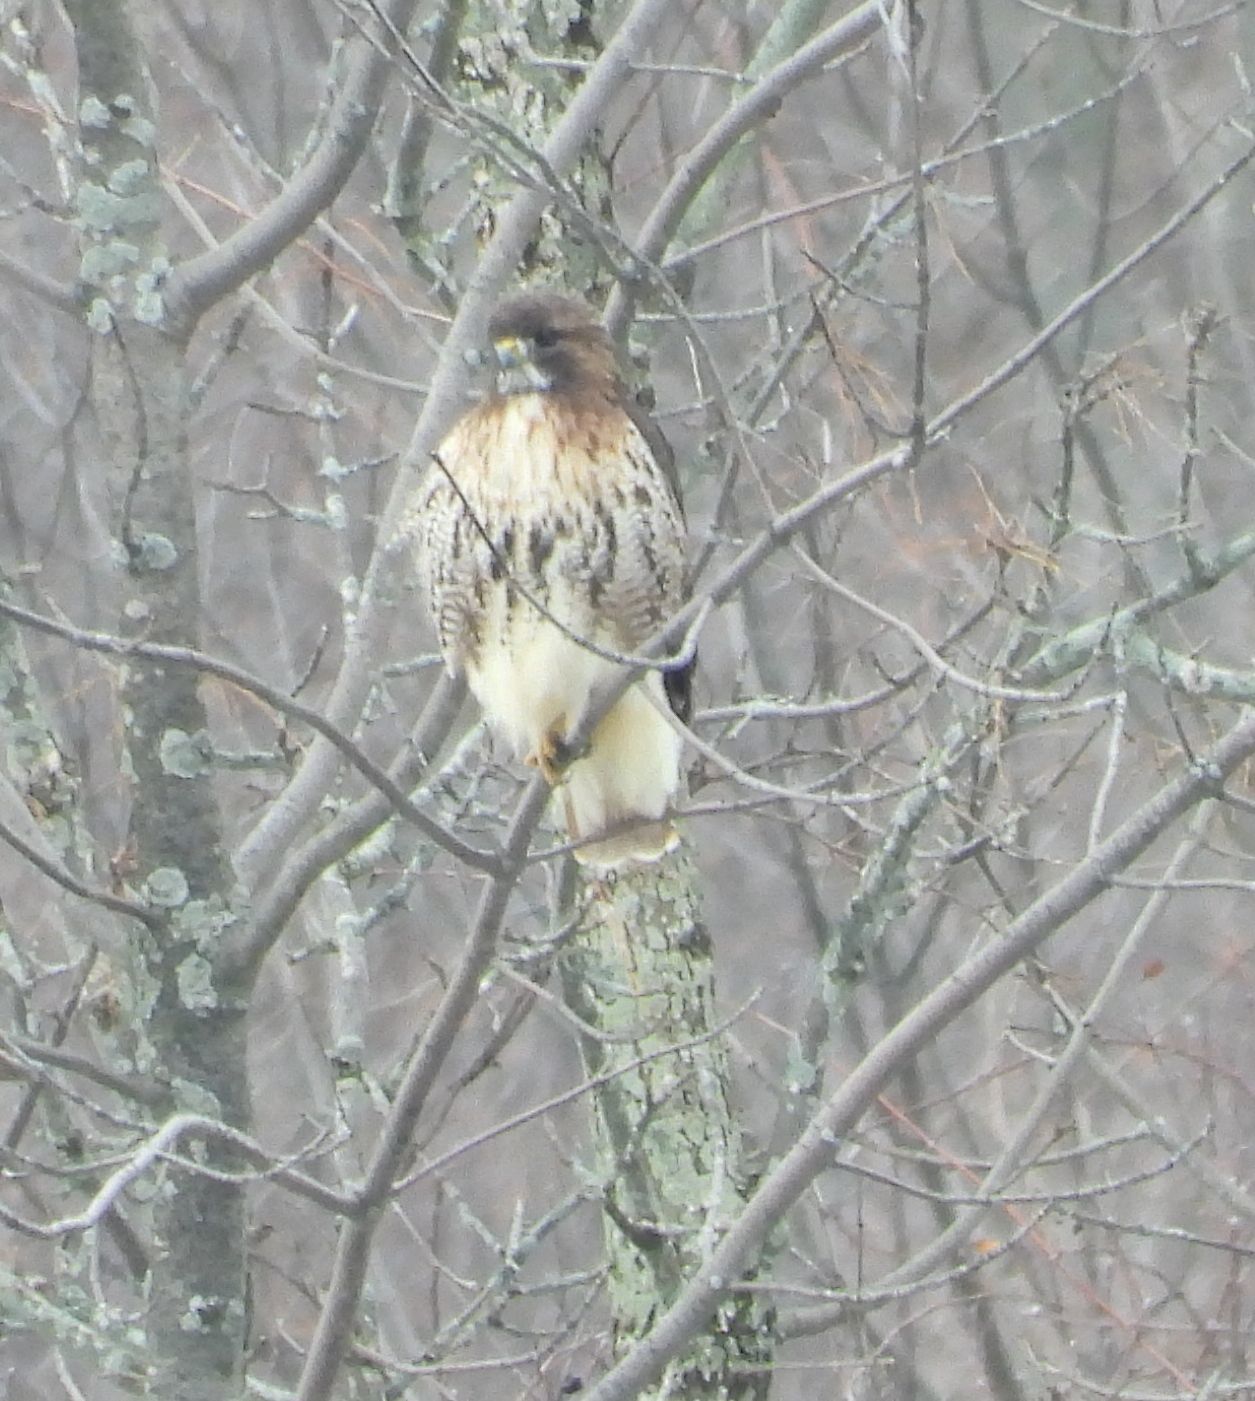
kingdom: Animalia
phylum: Chordata
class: Aves
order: Accipitriformes
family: Accipitridae
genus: Buteo
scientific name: Buteo jamaicensis
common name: Red-tailed hawk
